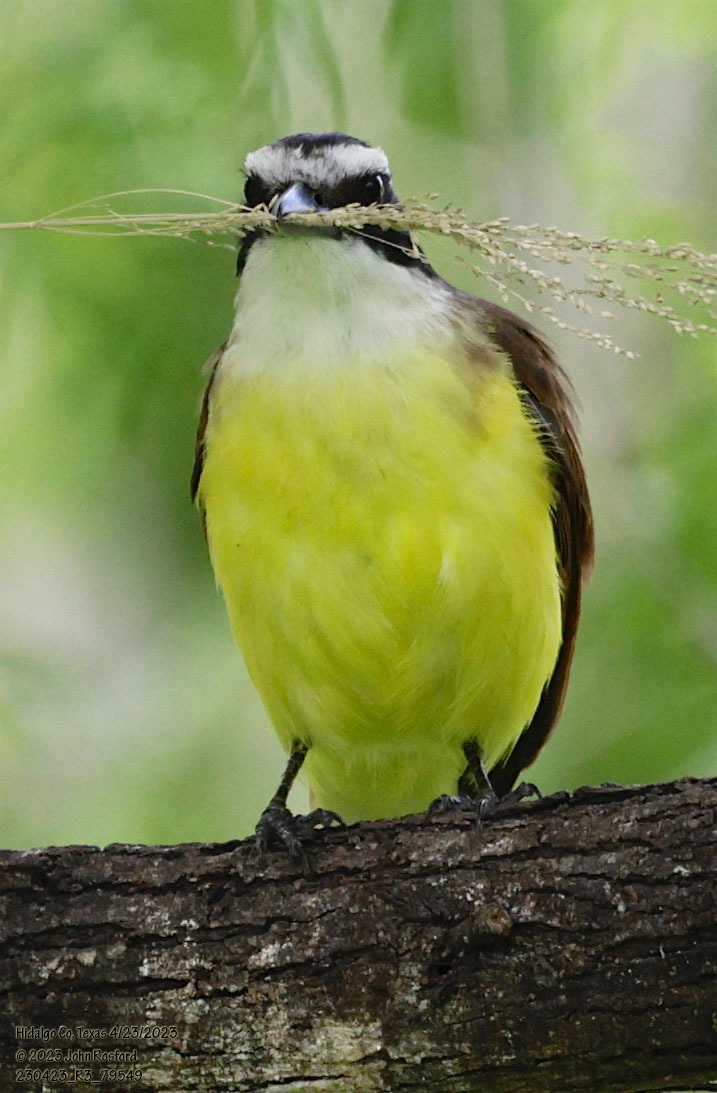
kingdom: Animalia
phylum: Chordata
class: Aves
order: Passeriformes
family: Tyrannidae
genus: Pitangus
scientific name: Pitangus sulphuratus
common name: Great kiskadee
